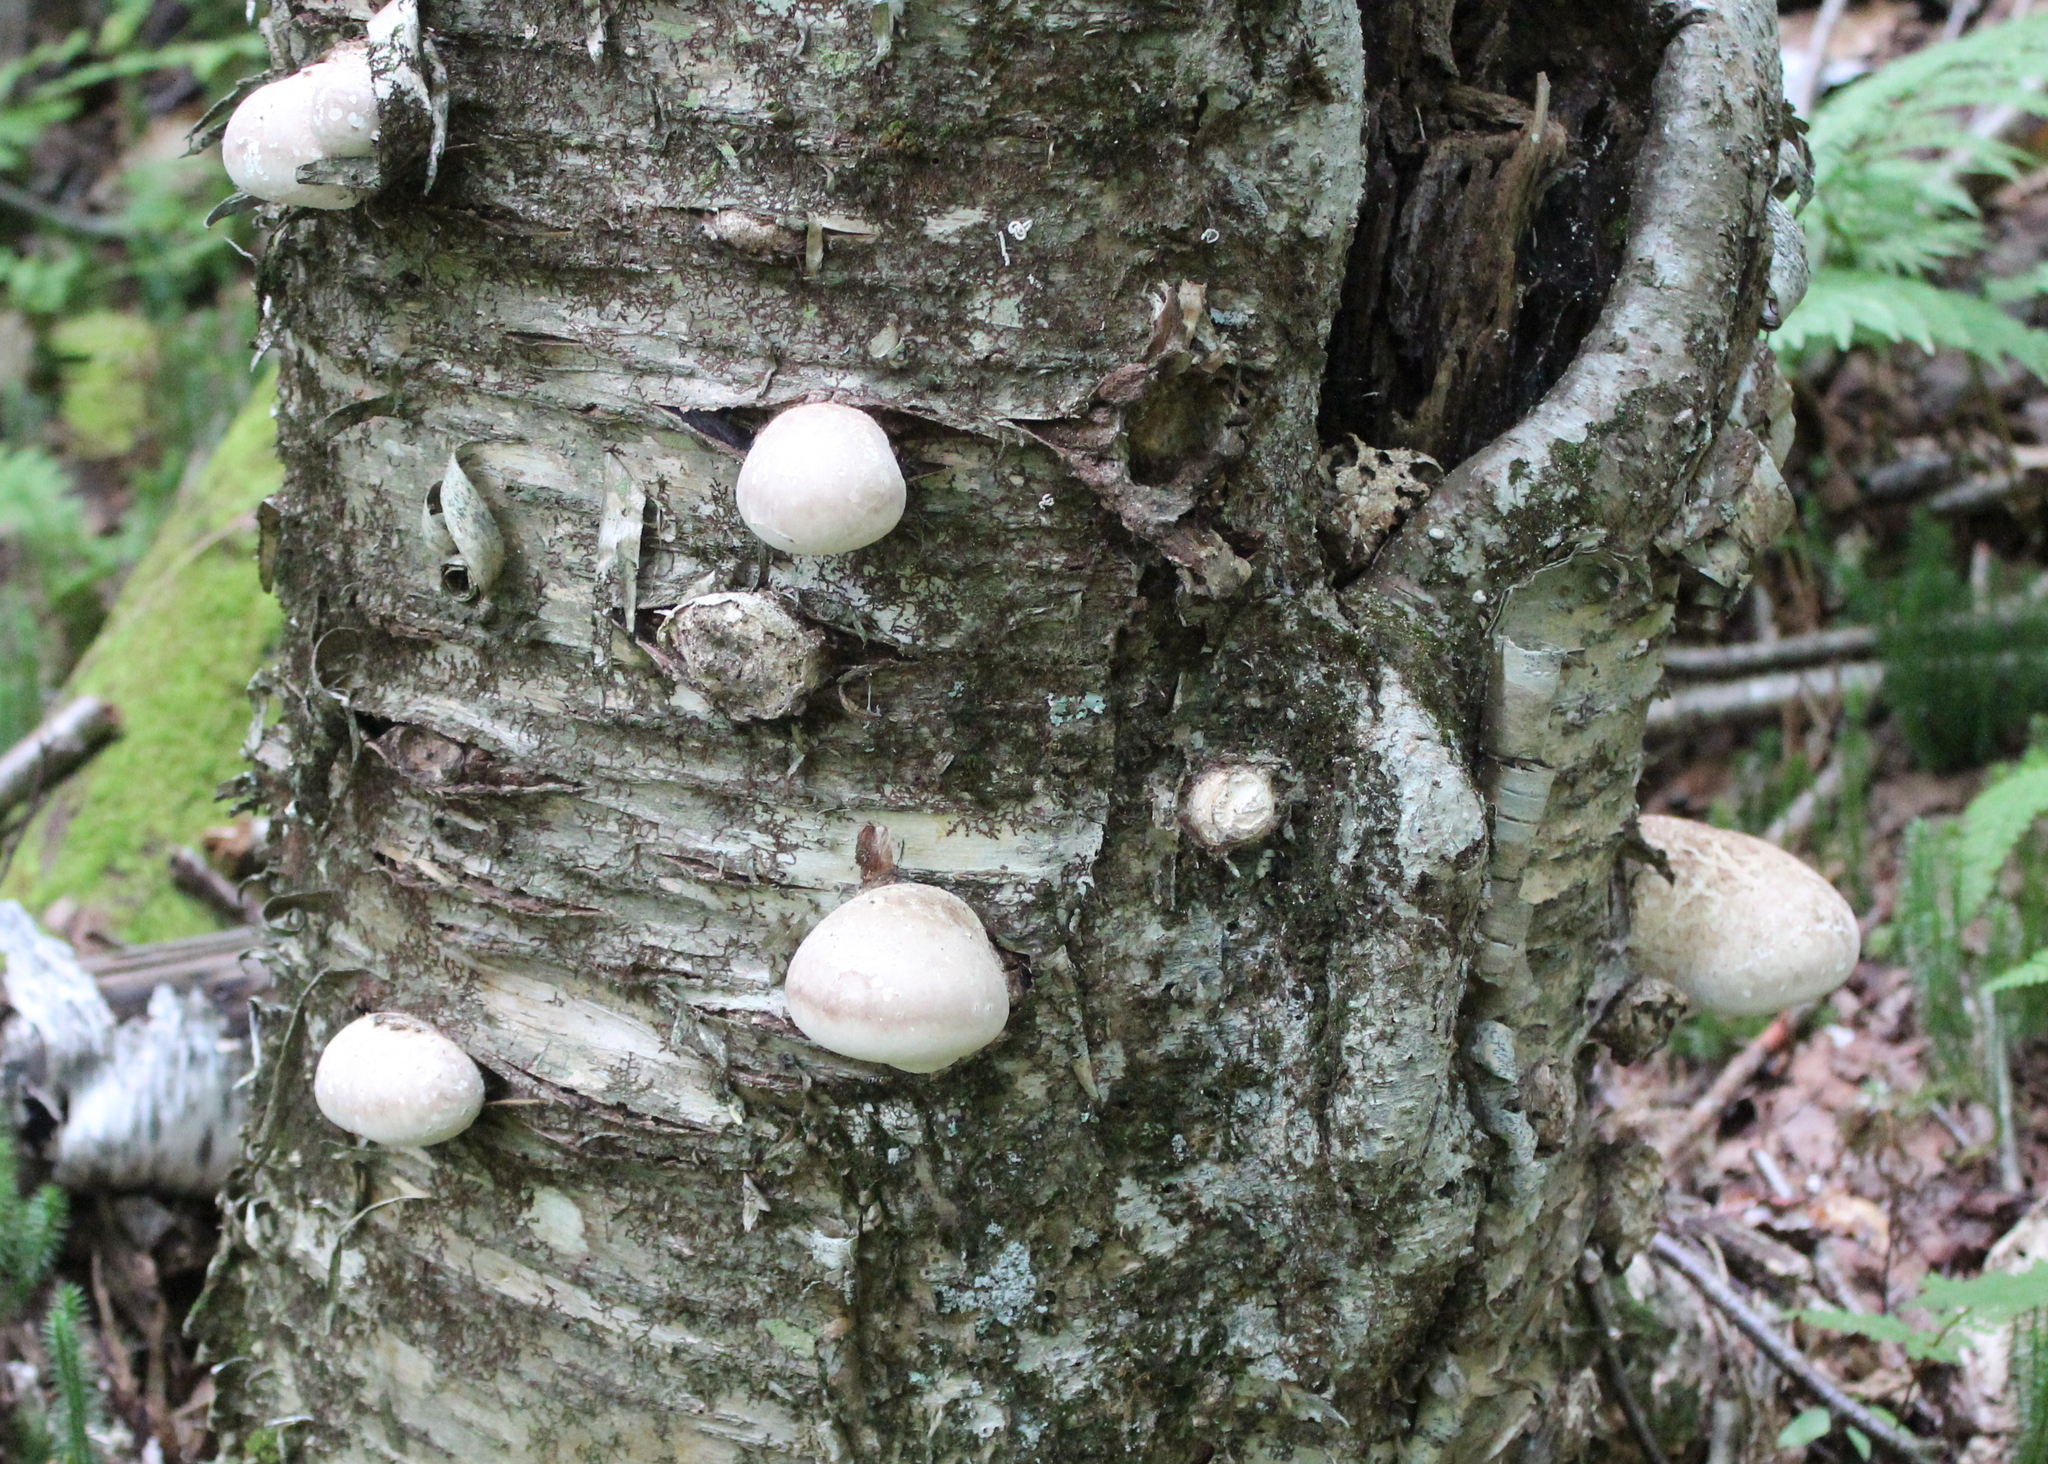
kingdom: Plantae
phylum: Tracheophyta
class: Magnoliopsida
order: Fagales
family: Betulaceae
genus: Betula
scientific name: Betula alleghaniensis
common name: Yellow birch
